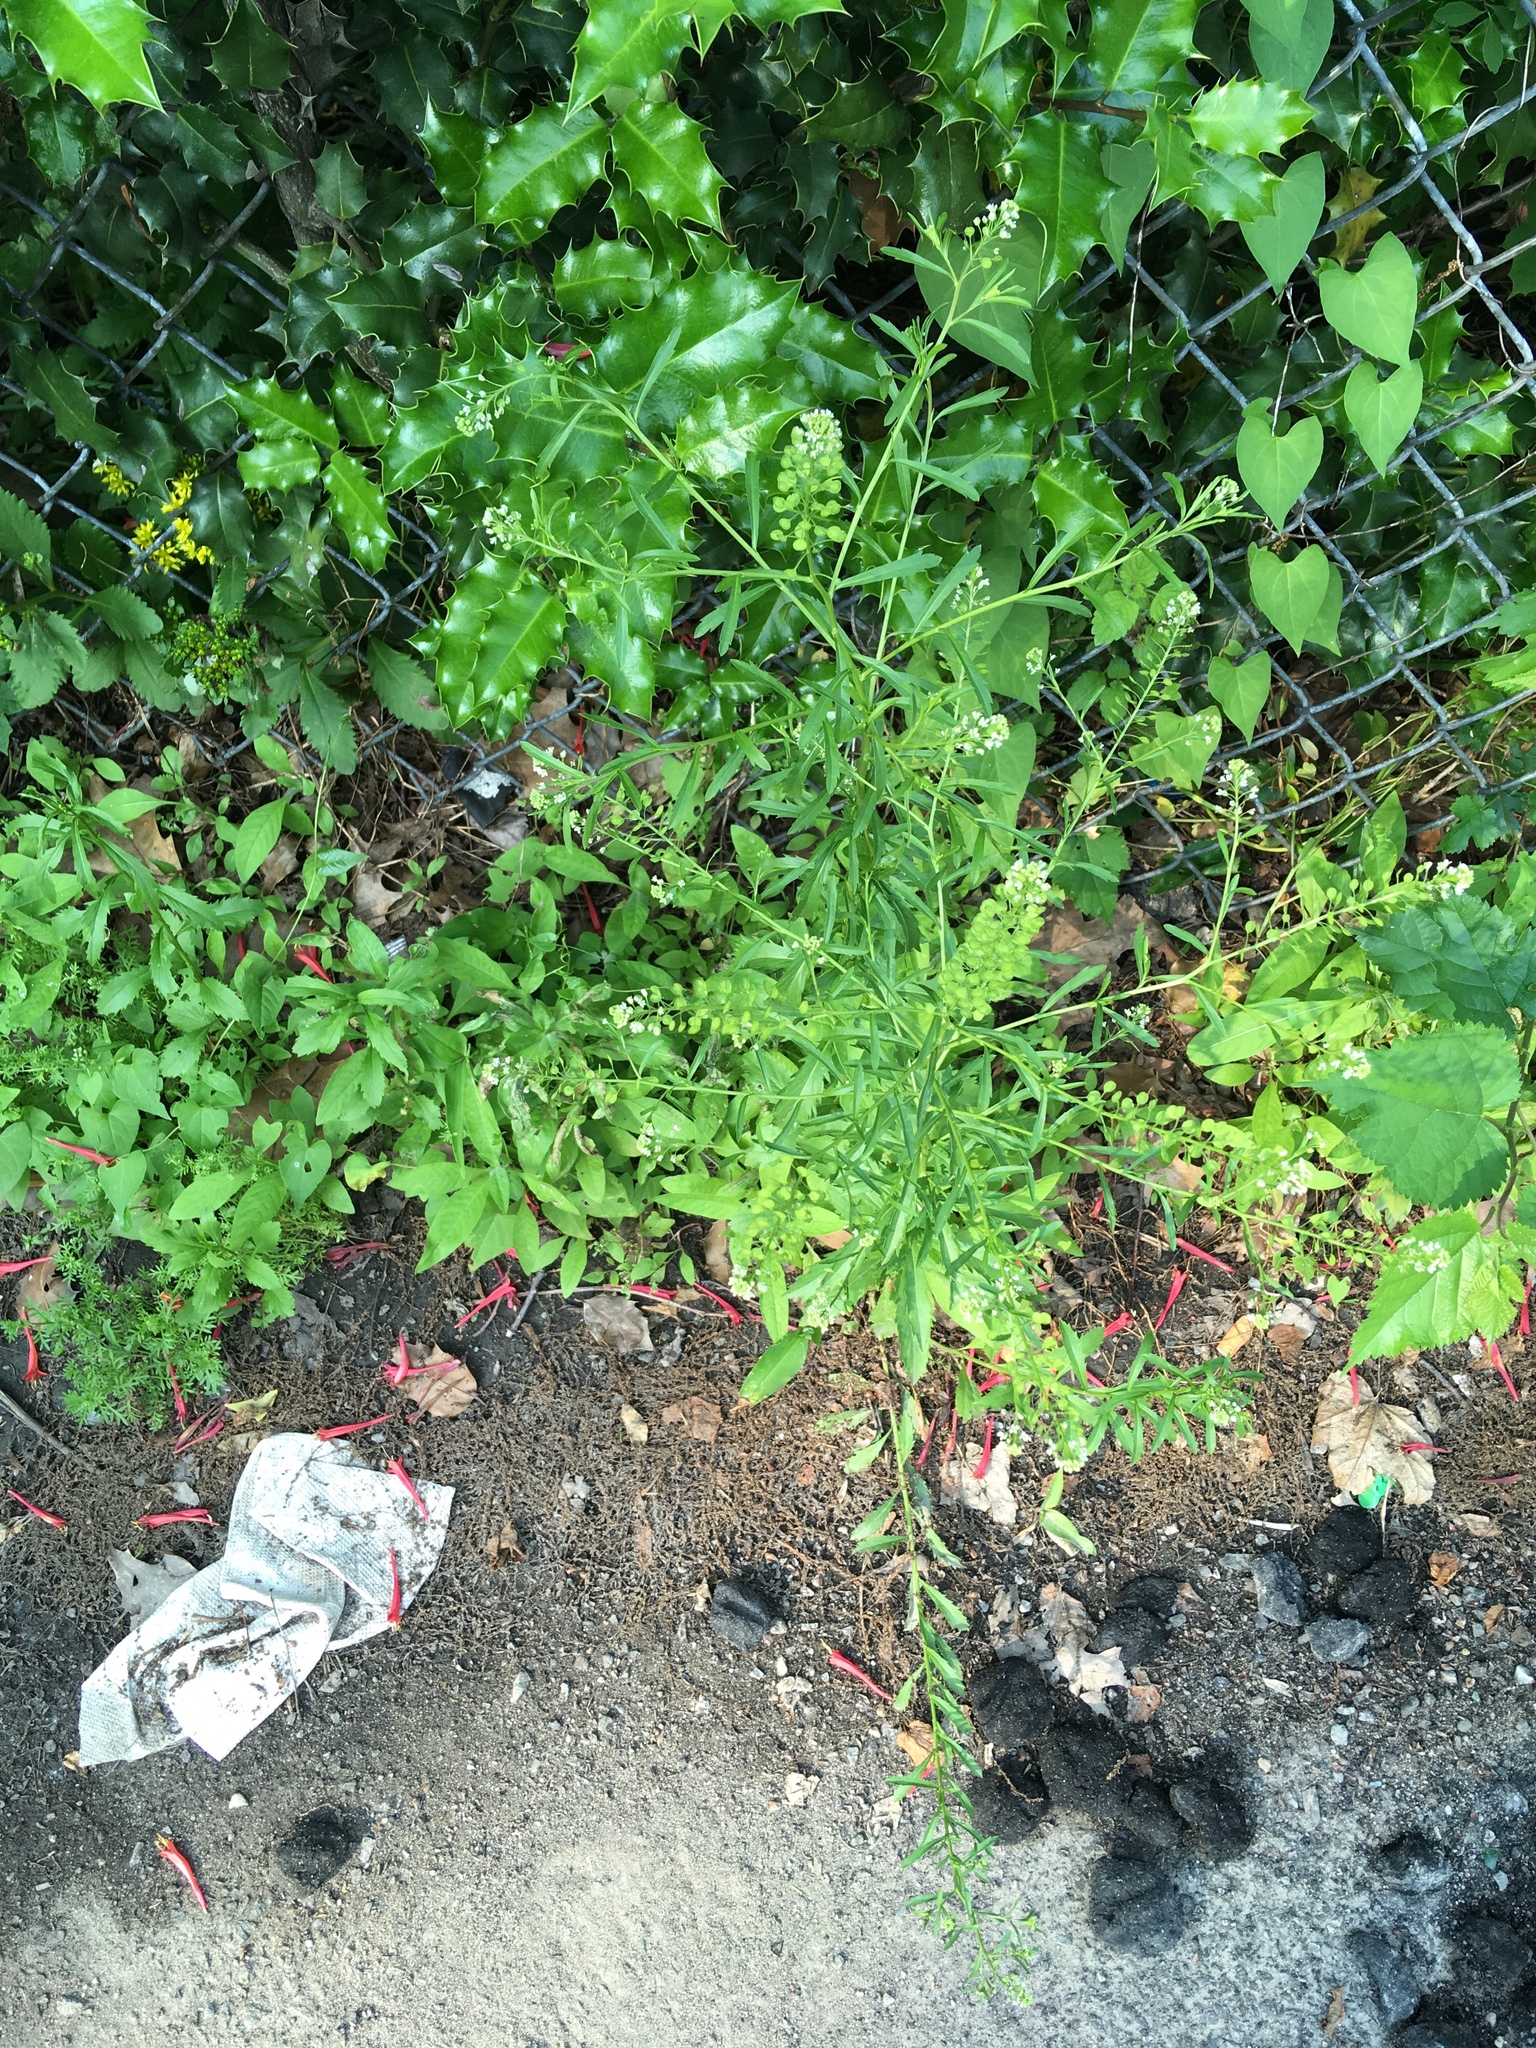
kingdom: Plantae
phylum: Tracheophyta
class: Magnoliopsida
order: Brassicales
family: Brassicaceae
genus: Lepidium
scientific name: Lepidium virginicum
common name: Least pepperwort
